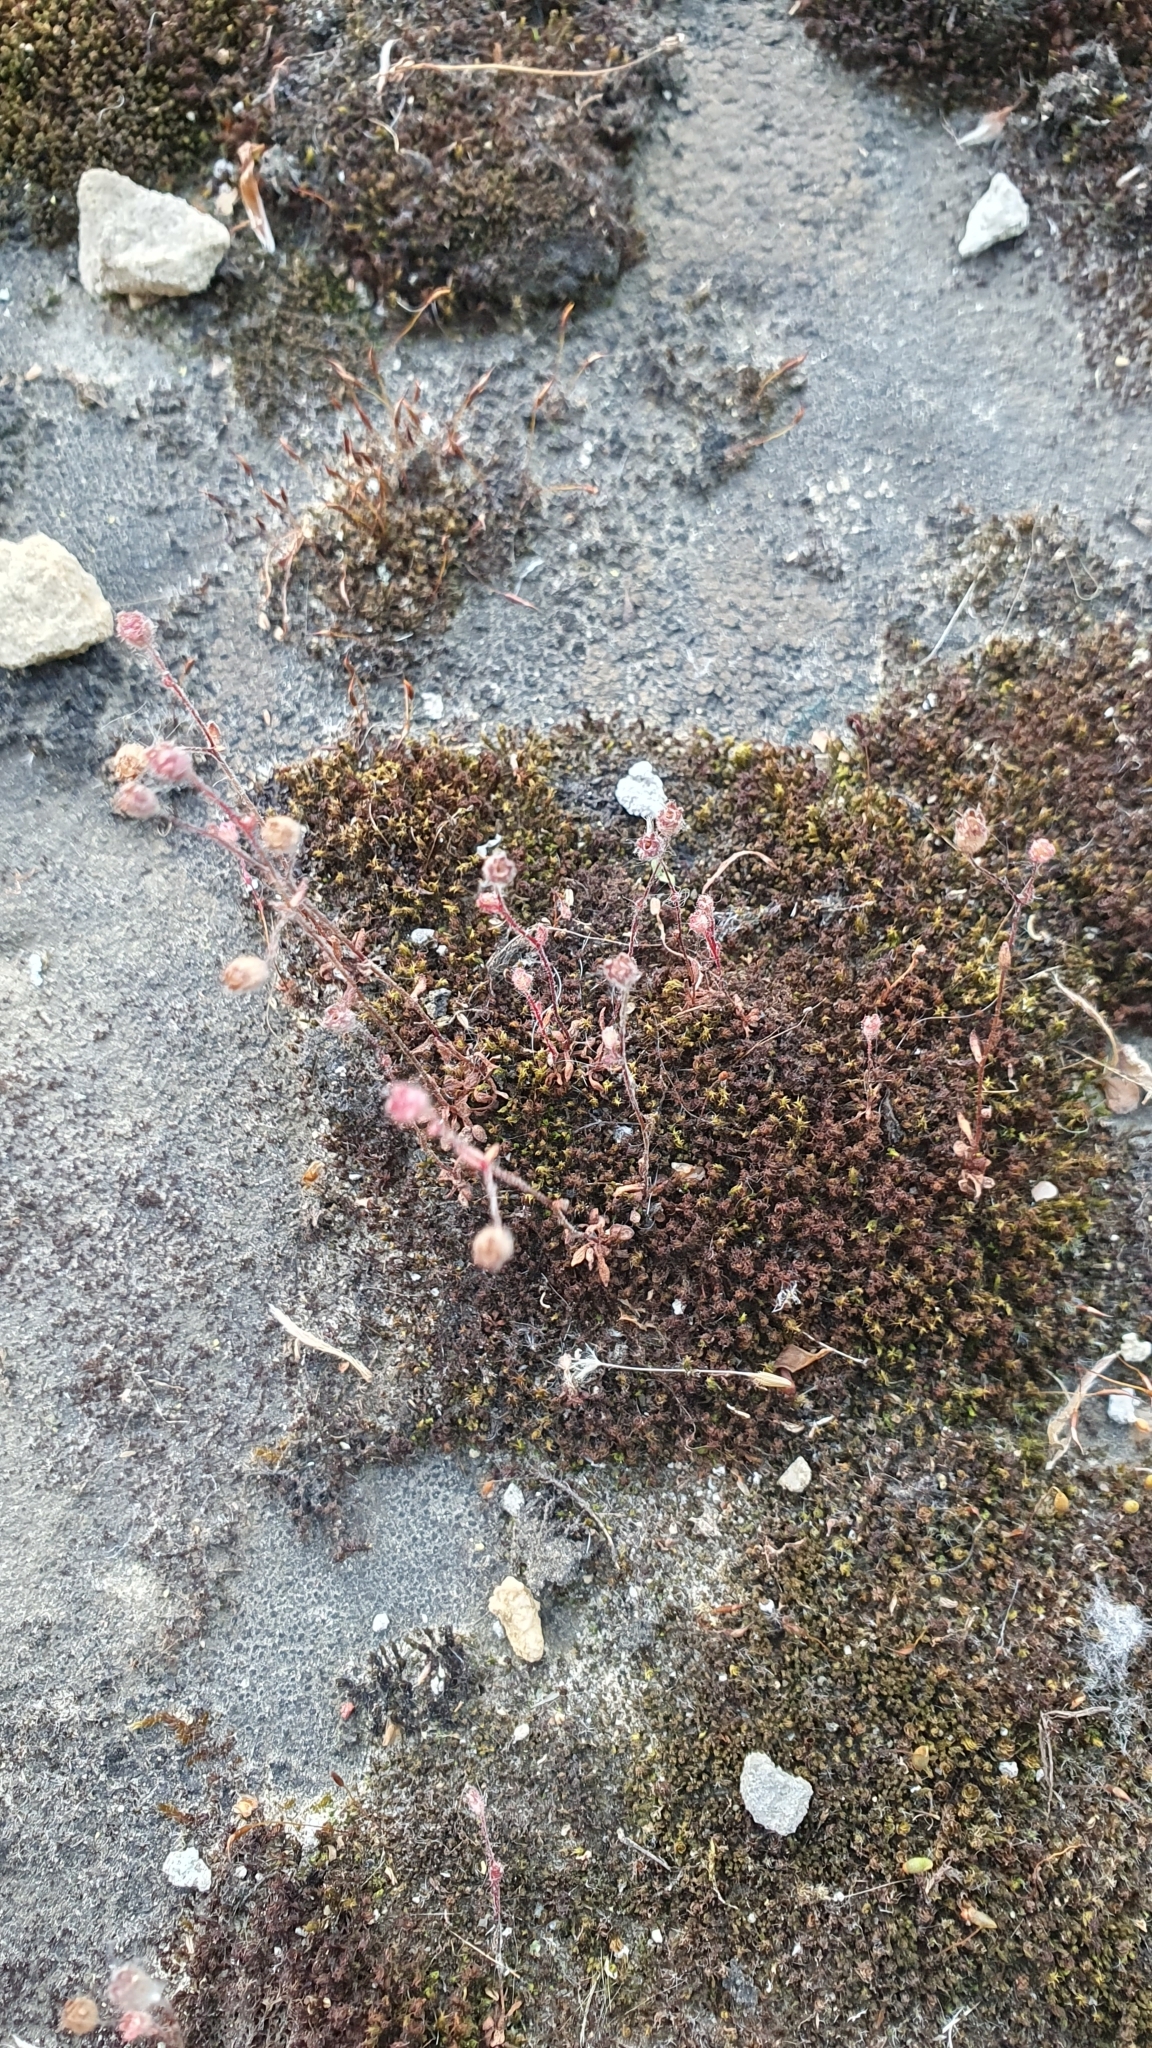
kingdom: Plantae
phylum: Tracheophyta
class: Magnoliopsida
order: Saxifragales
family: Saxifragaceae
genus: Saxifraga
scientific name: Saxifraga tridactylites
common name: Rue-leaved saxifrage
